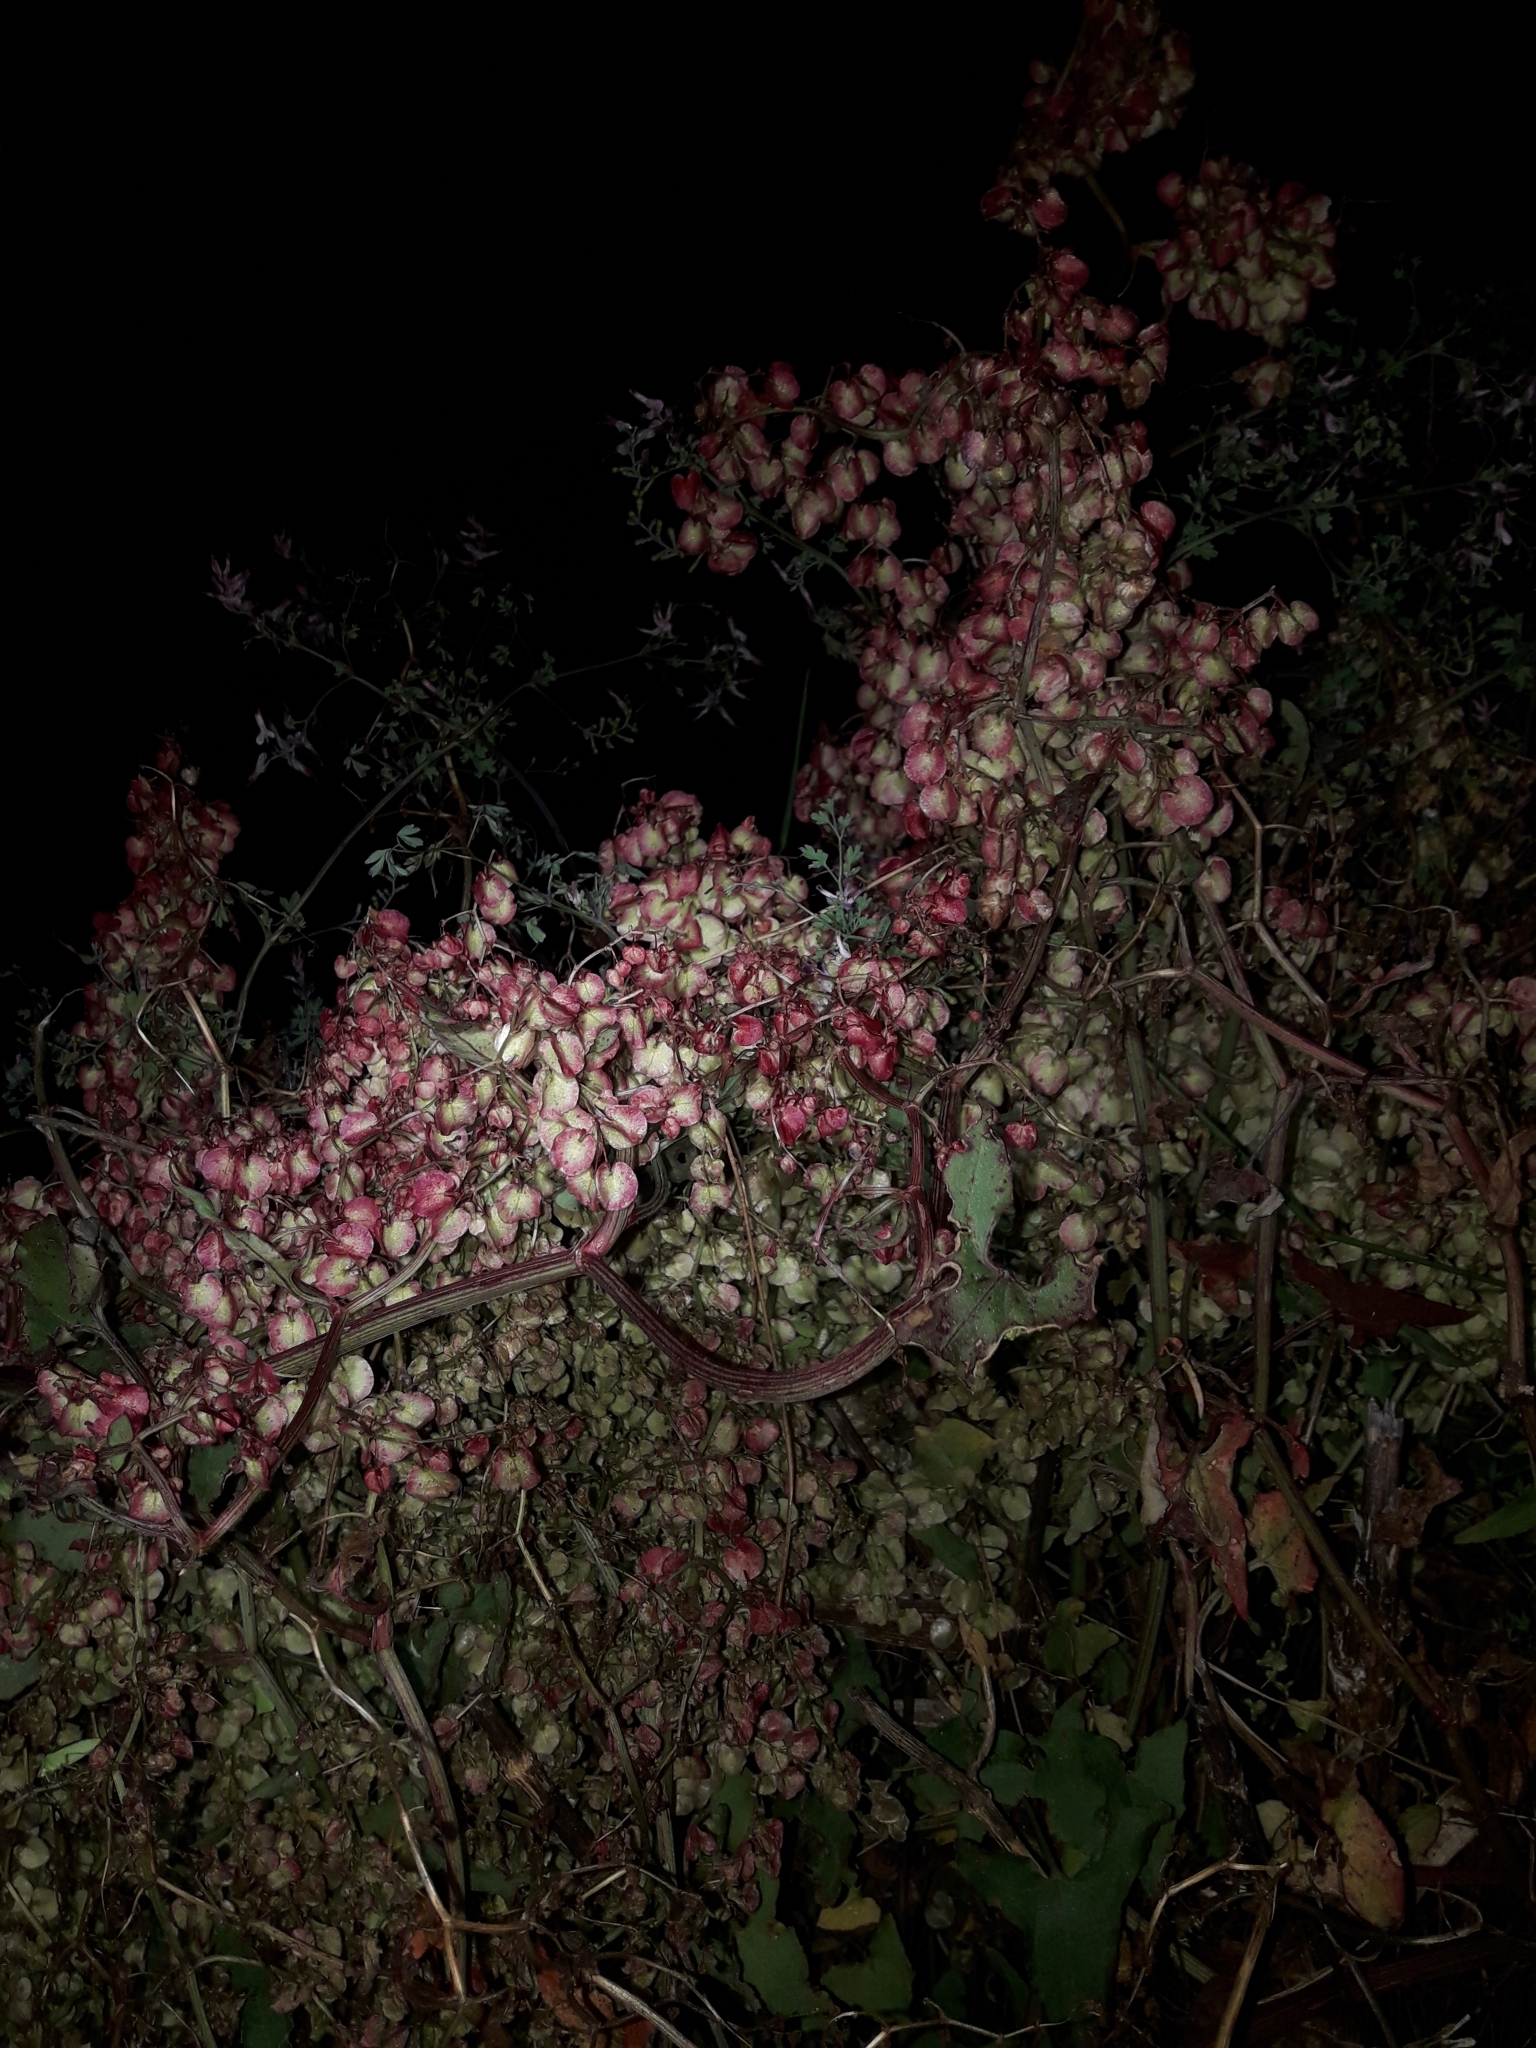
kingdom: Plantae
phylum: Tracheophyta
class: Magnoliopsida
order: Caryophyllales
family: Polygonaceae
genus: Rumex
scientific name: Rumex sagittatus
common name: Climbing dock
